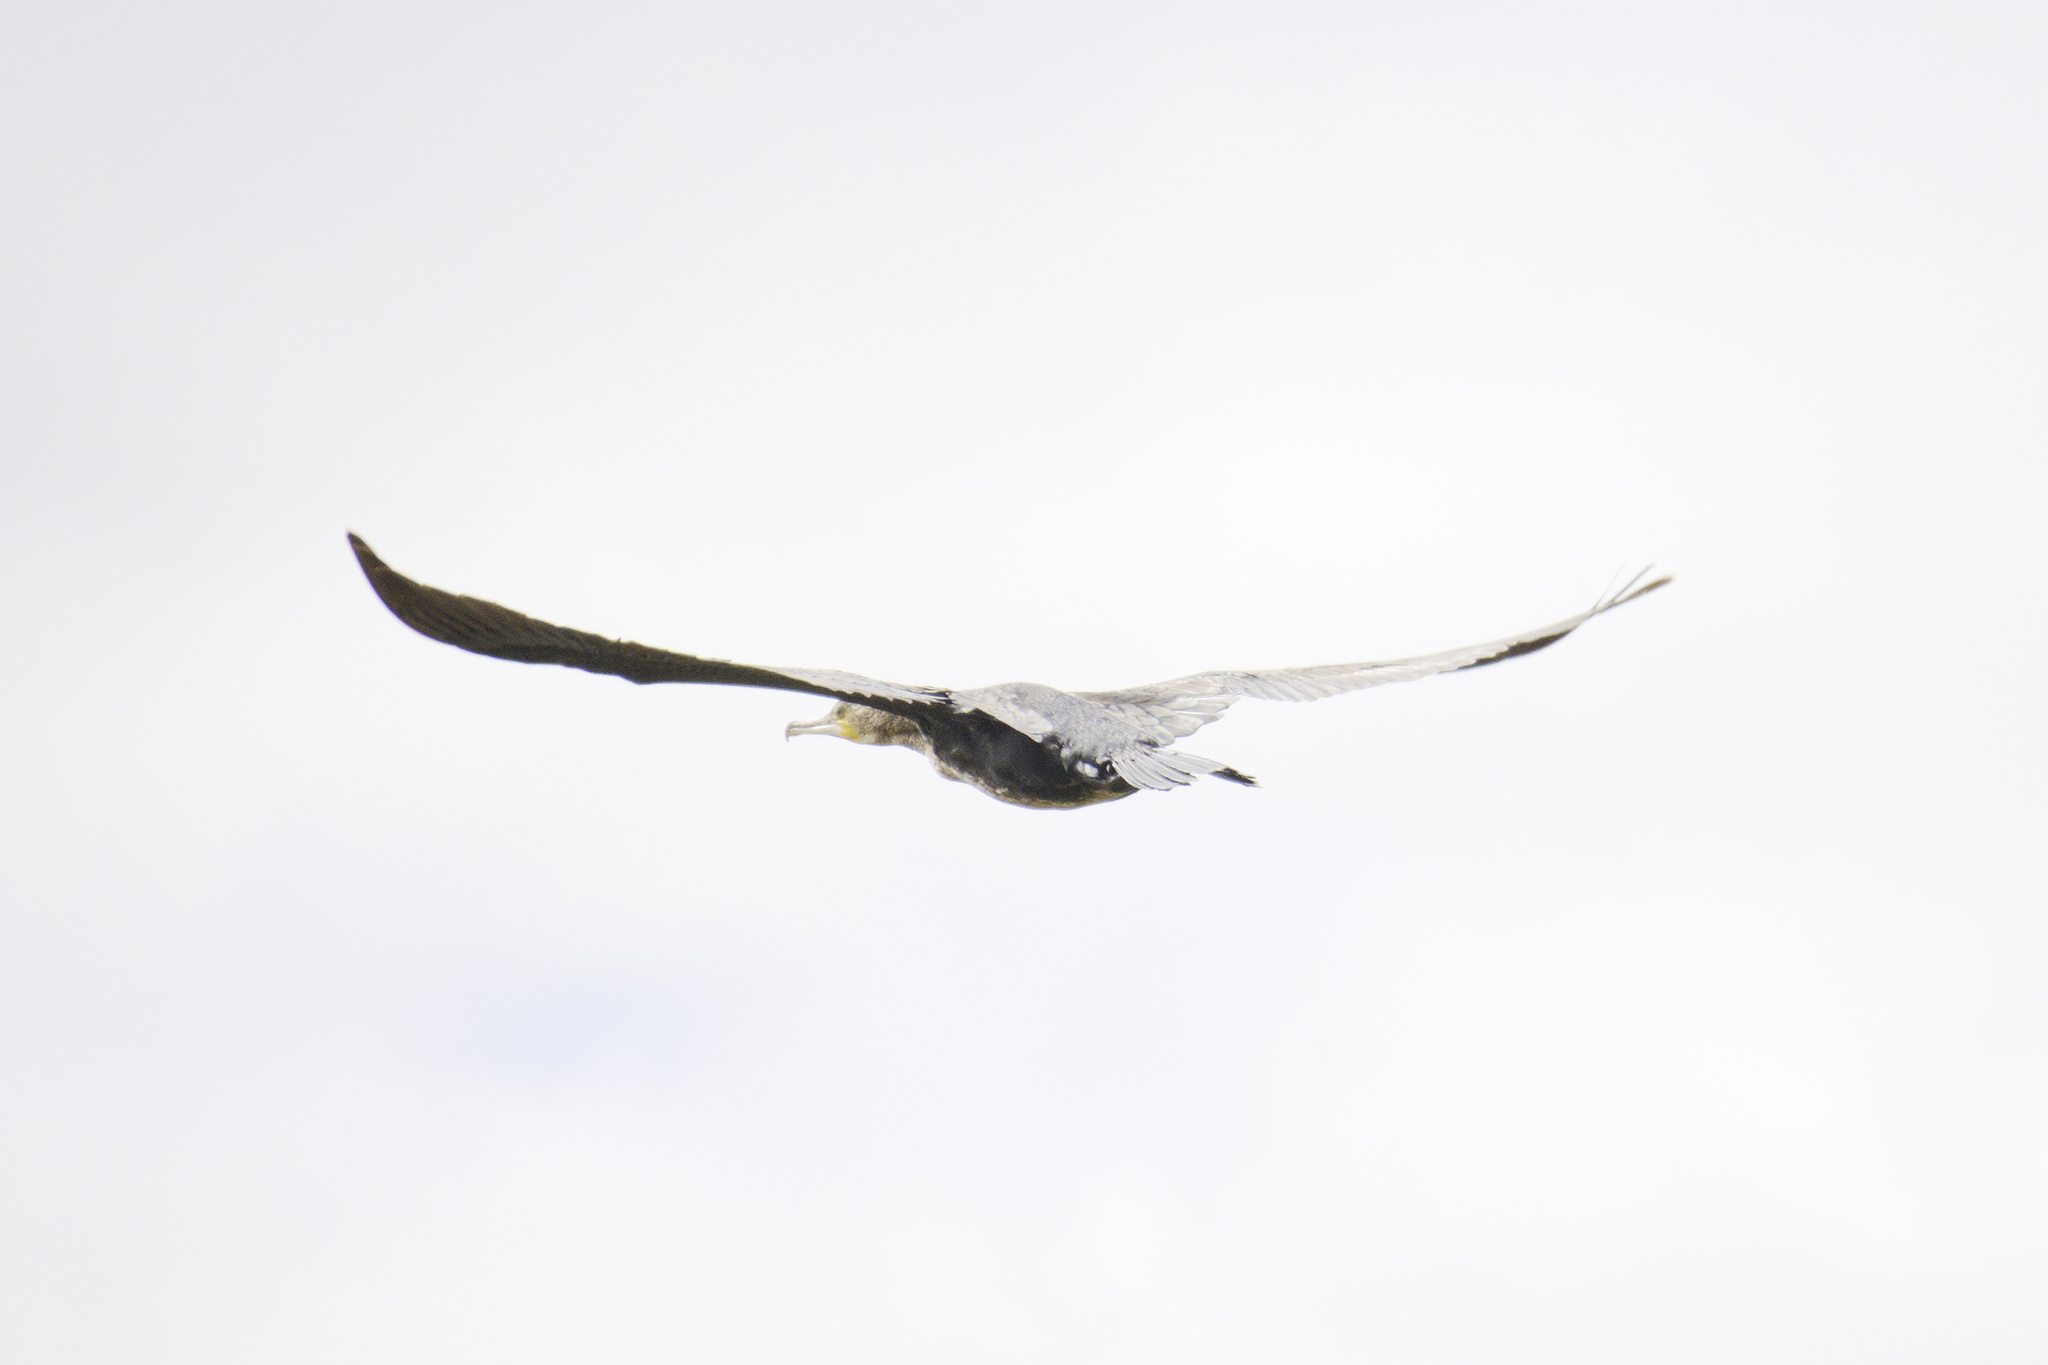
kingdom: Animalia
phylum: Chordata
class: Aves
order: Suliformes
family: Phalacrocoracidae
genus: Phalacrocorax
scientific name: Phalacrocorax carbo
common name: Great cormorant
